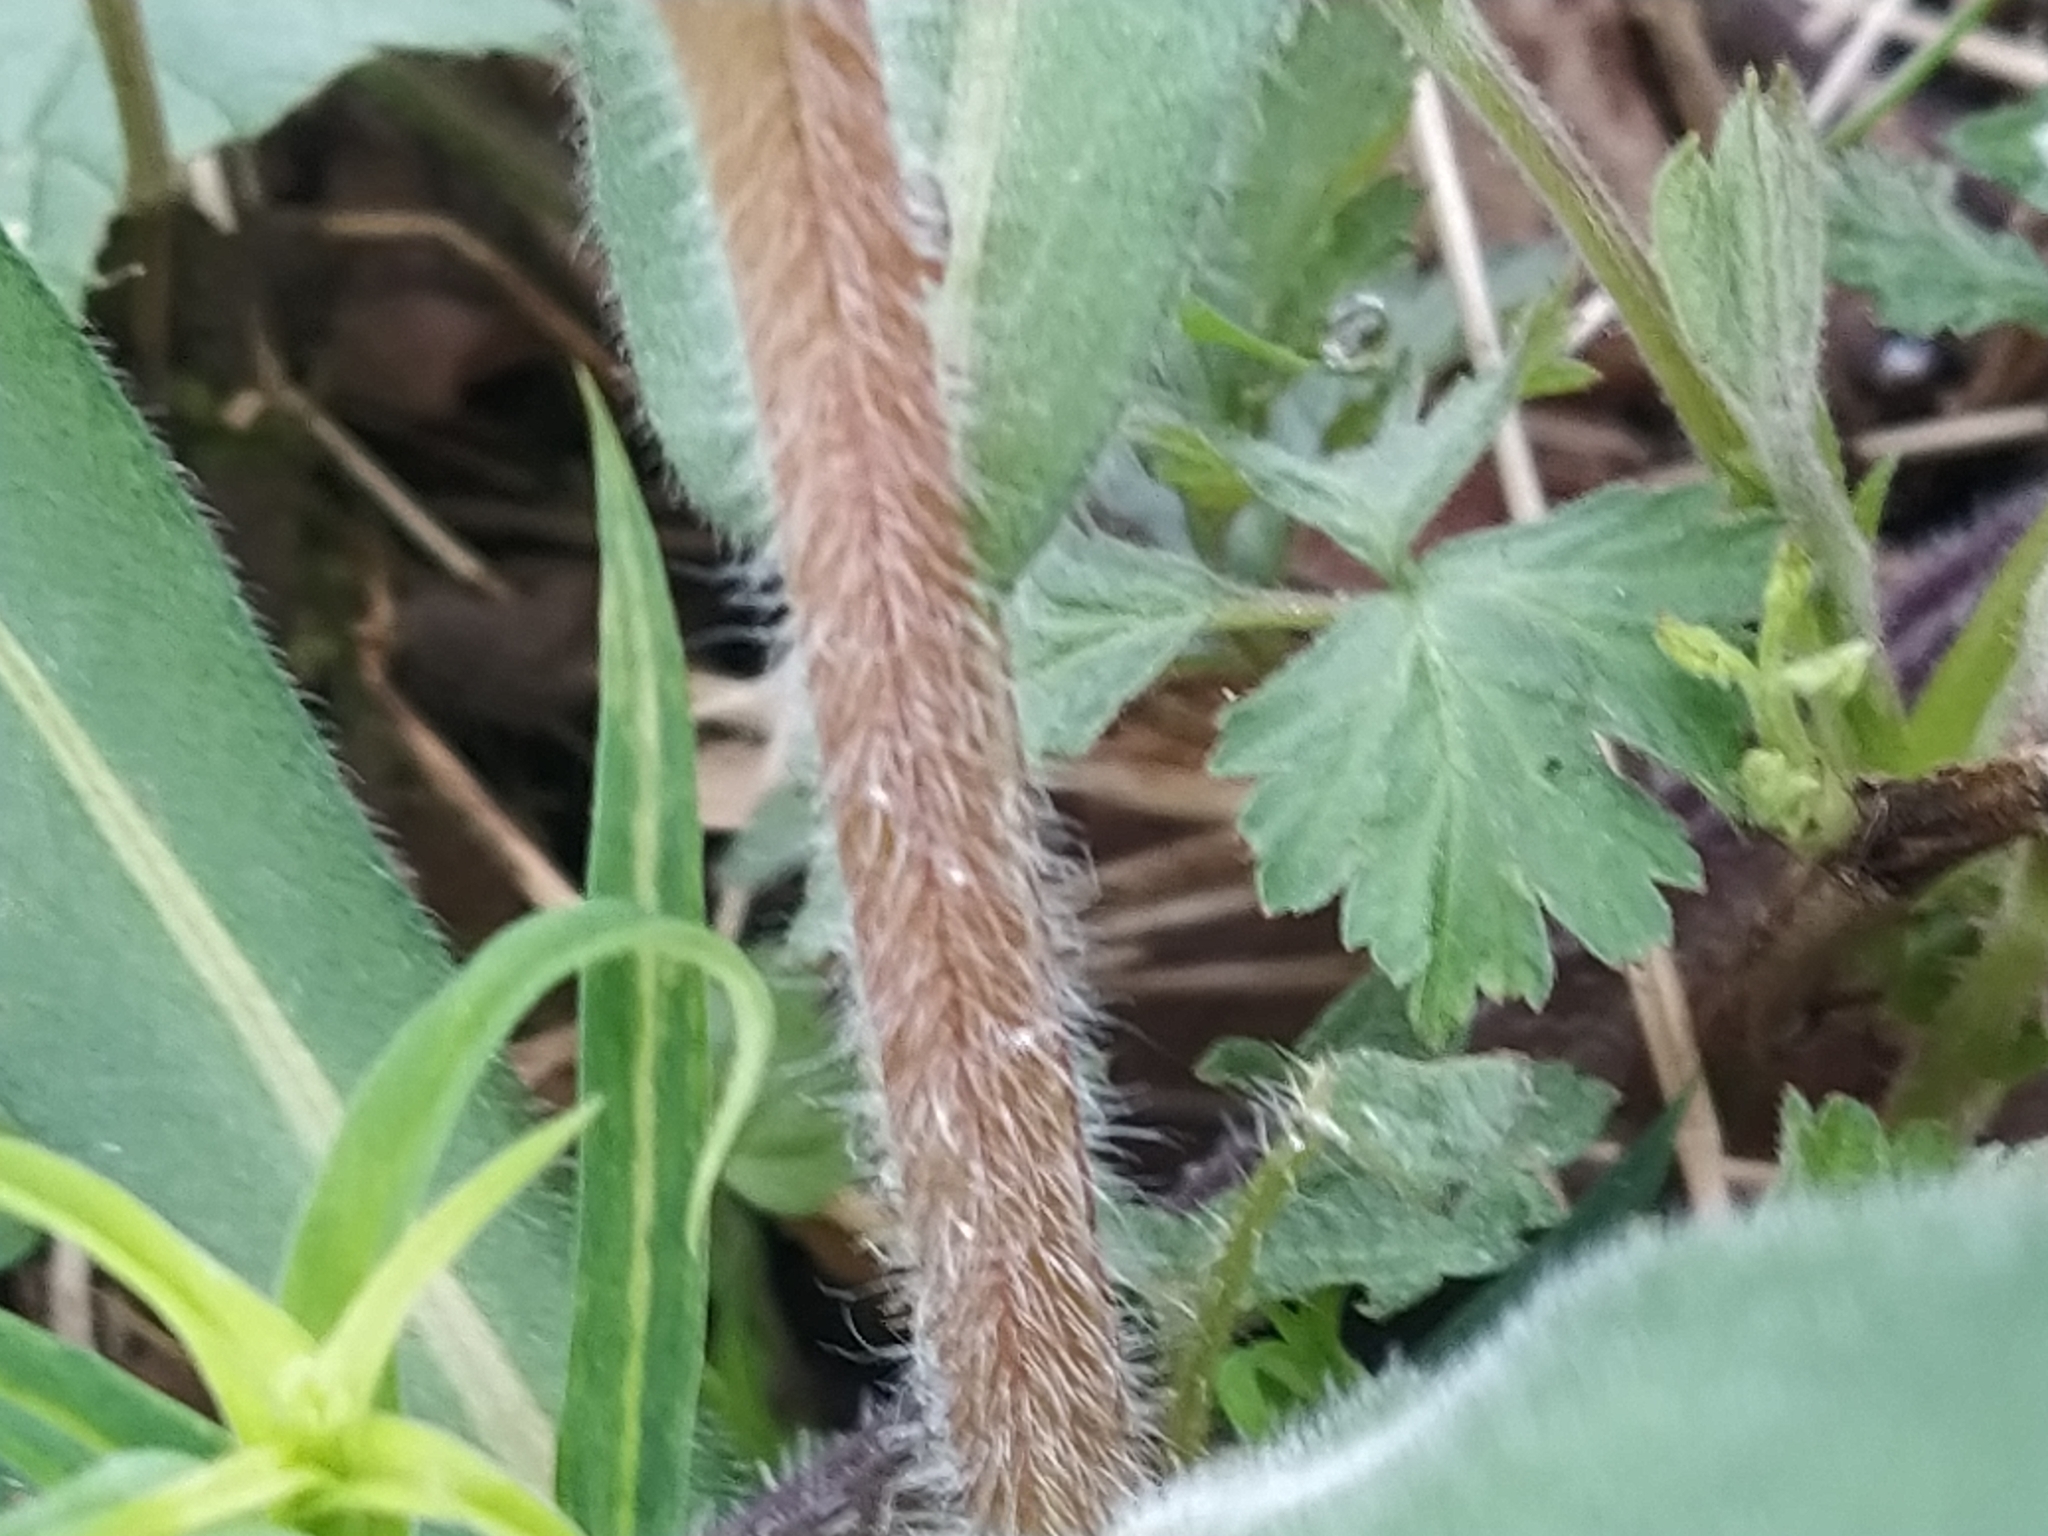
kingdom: Plantae
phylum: Tracheophyta
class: Magnoliopsida
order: Boraginales
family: Boraginaceae
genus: Pulmonaria
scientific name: Pulmonaria obscura
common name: Suffolk lungwort
